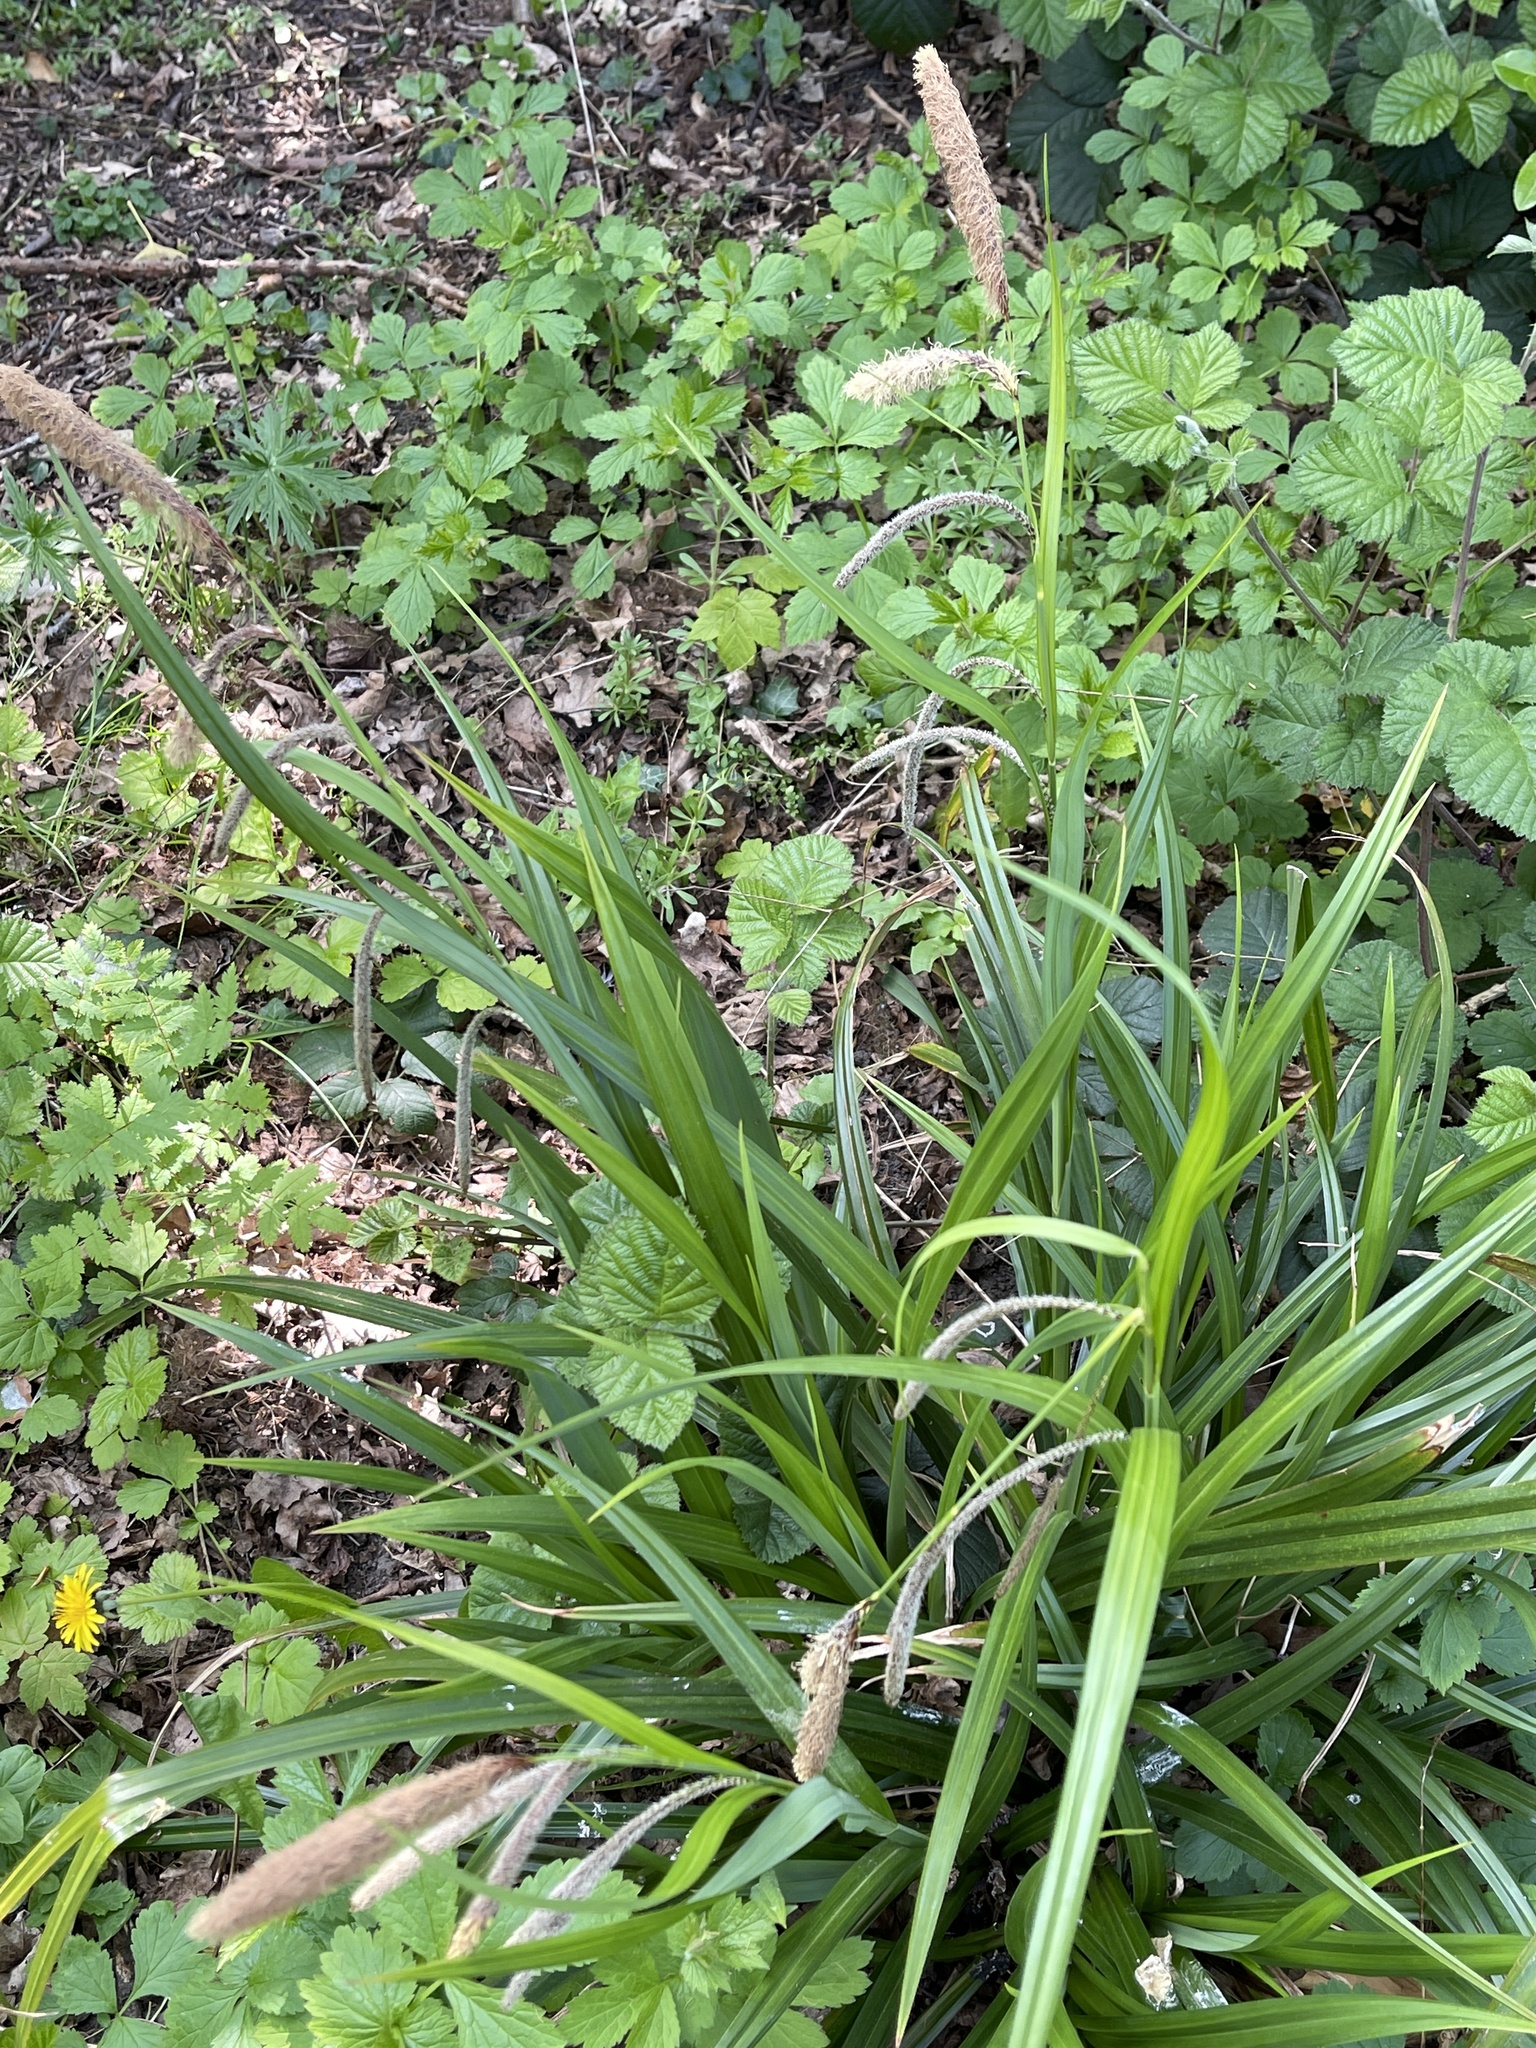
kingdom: Plantae
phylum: Tracheophyta
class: Liliopsida
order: Poales
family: Cyperaceae
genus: Carex
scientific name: Carex pendula
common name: Pendulous sedge
